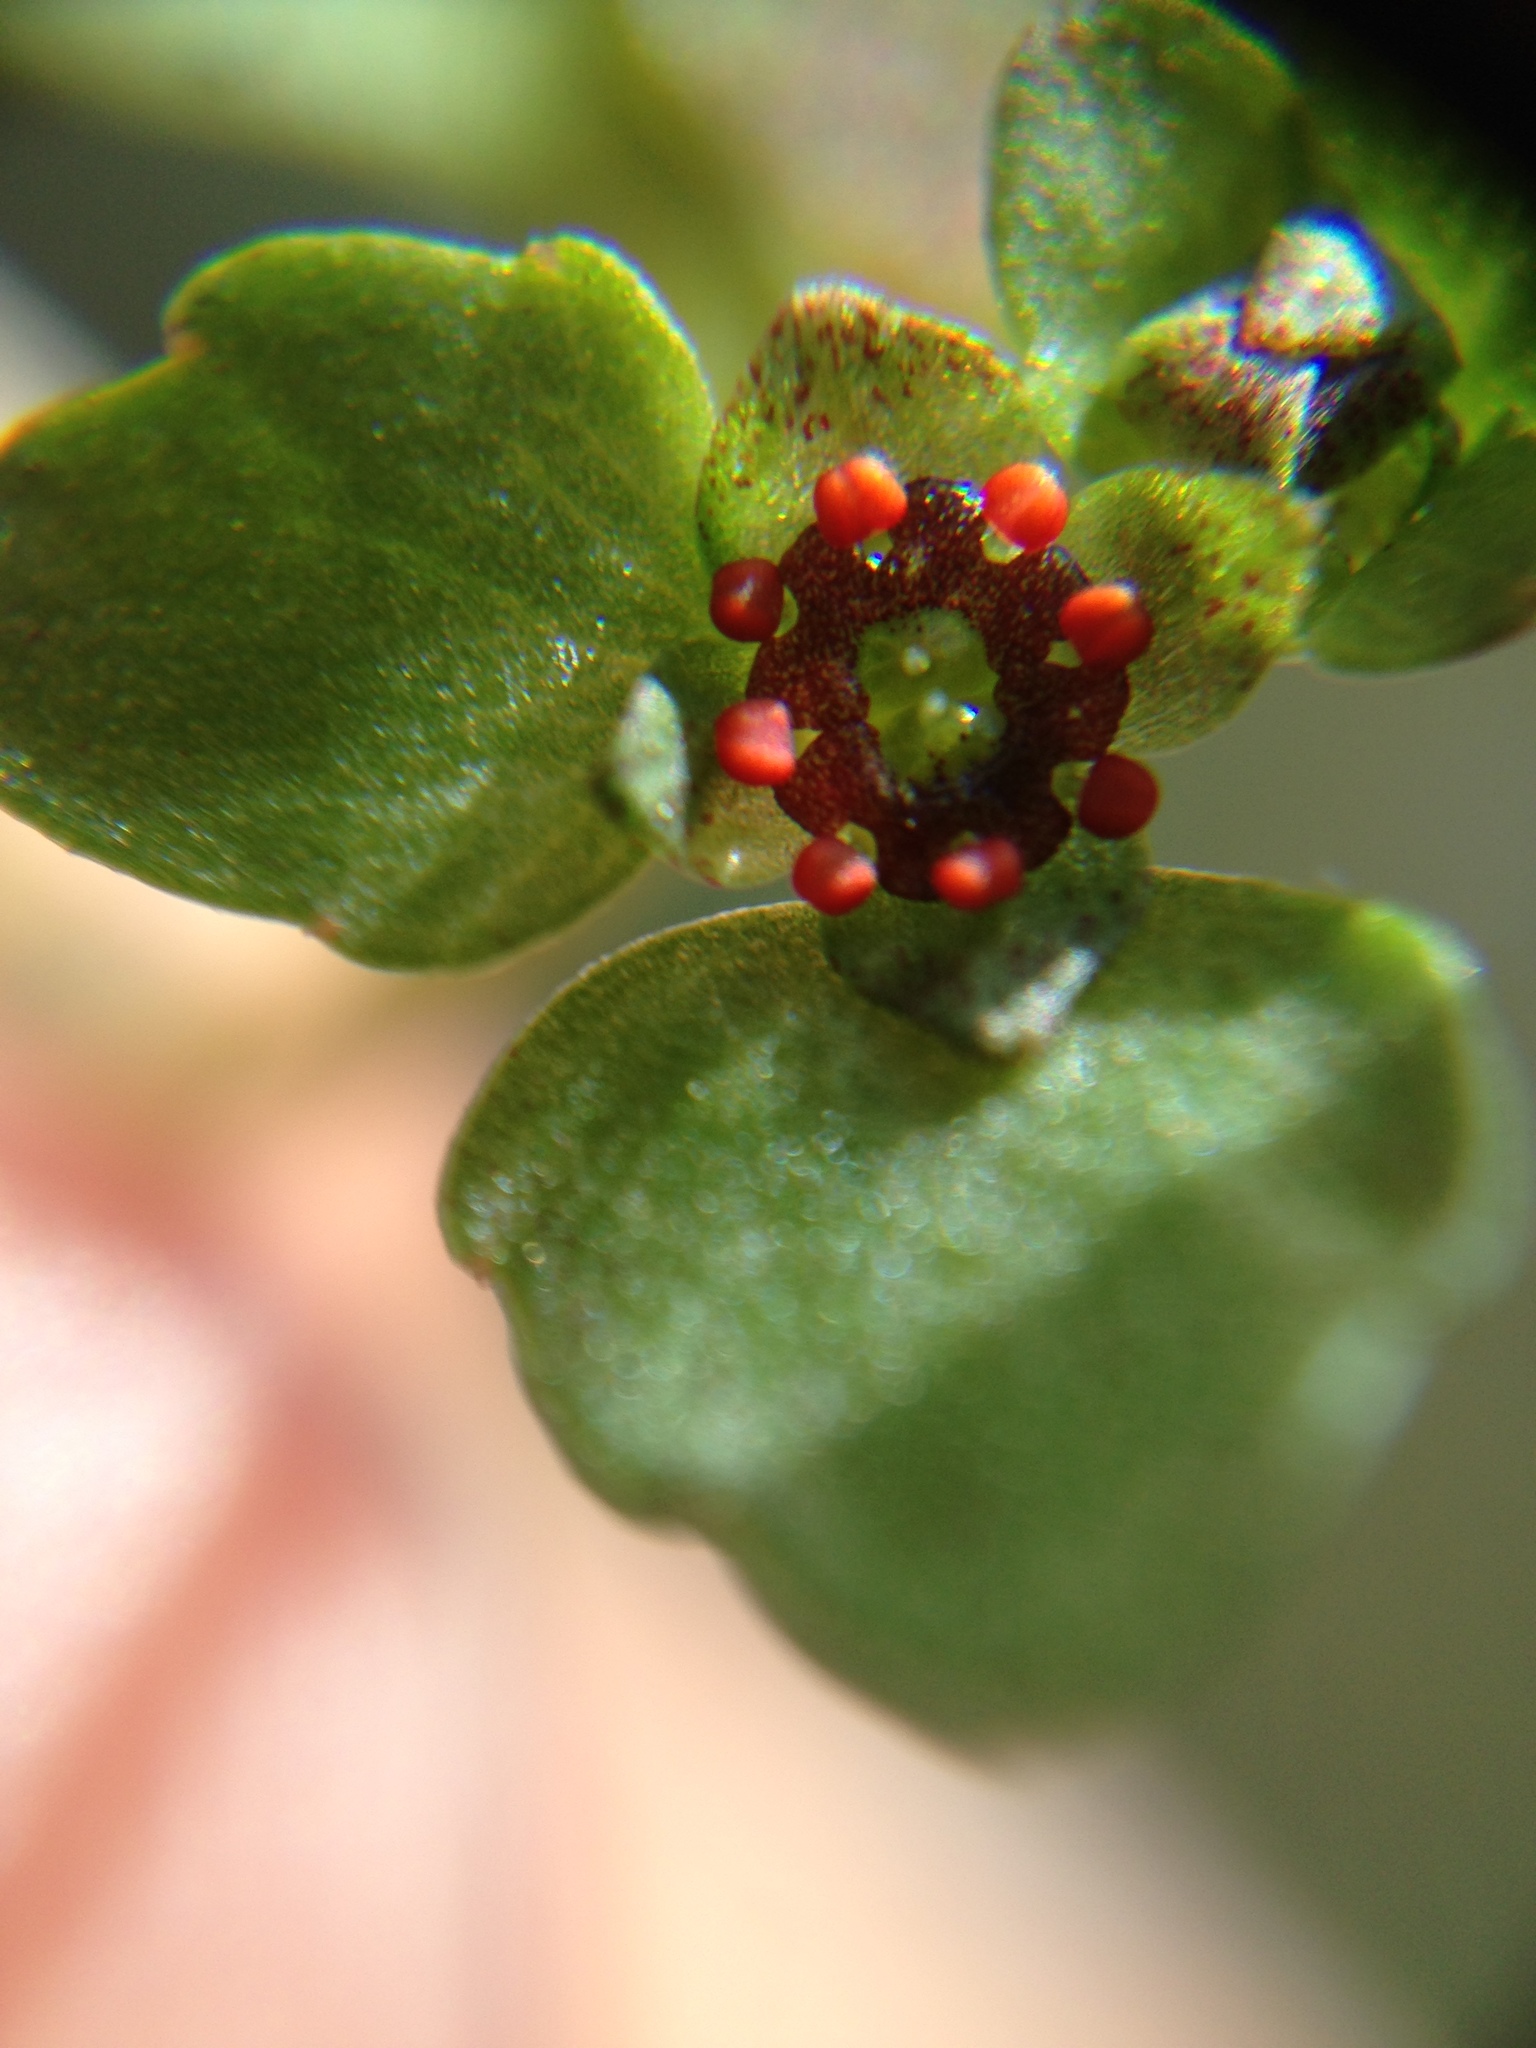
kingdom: Plantae
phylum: Tracheophyta
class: Magnoliopsida
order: Saxifragales
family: Saxifragaceae
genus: Chrysosplenium
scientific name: Chrysosplenium americanum
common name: American golden-saxifrage
